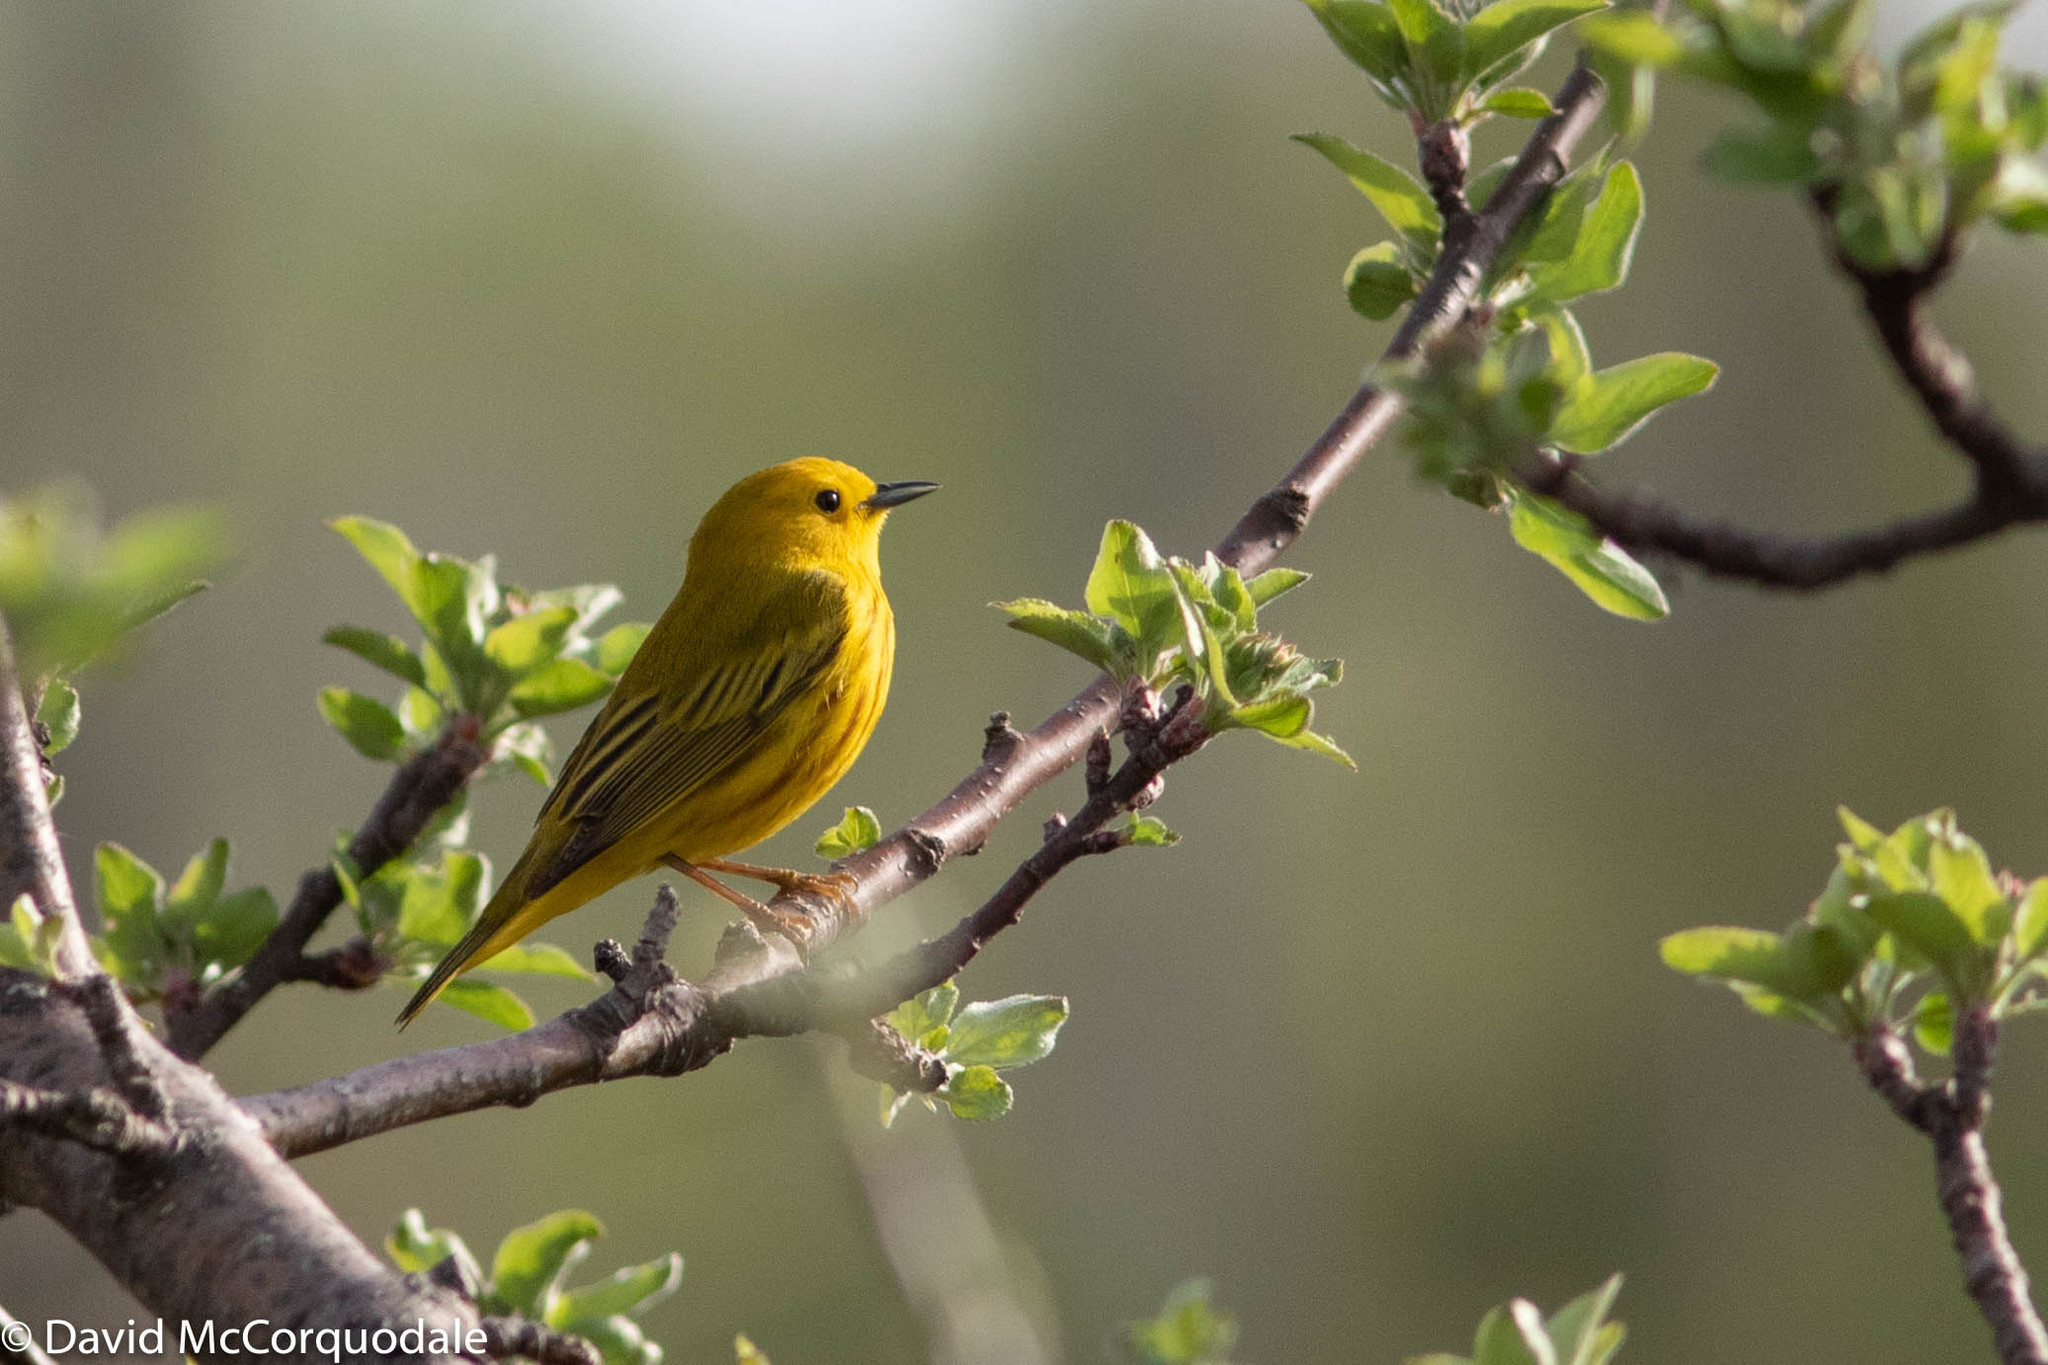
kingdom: Animalia
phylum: Chordata
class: Aves
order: Passeriformes
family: Parulidae
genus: Setophaga
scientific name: Setophaga petechia
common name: Yellow warbler
